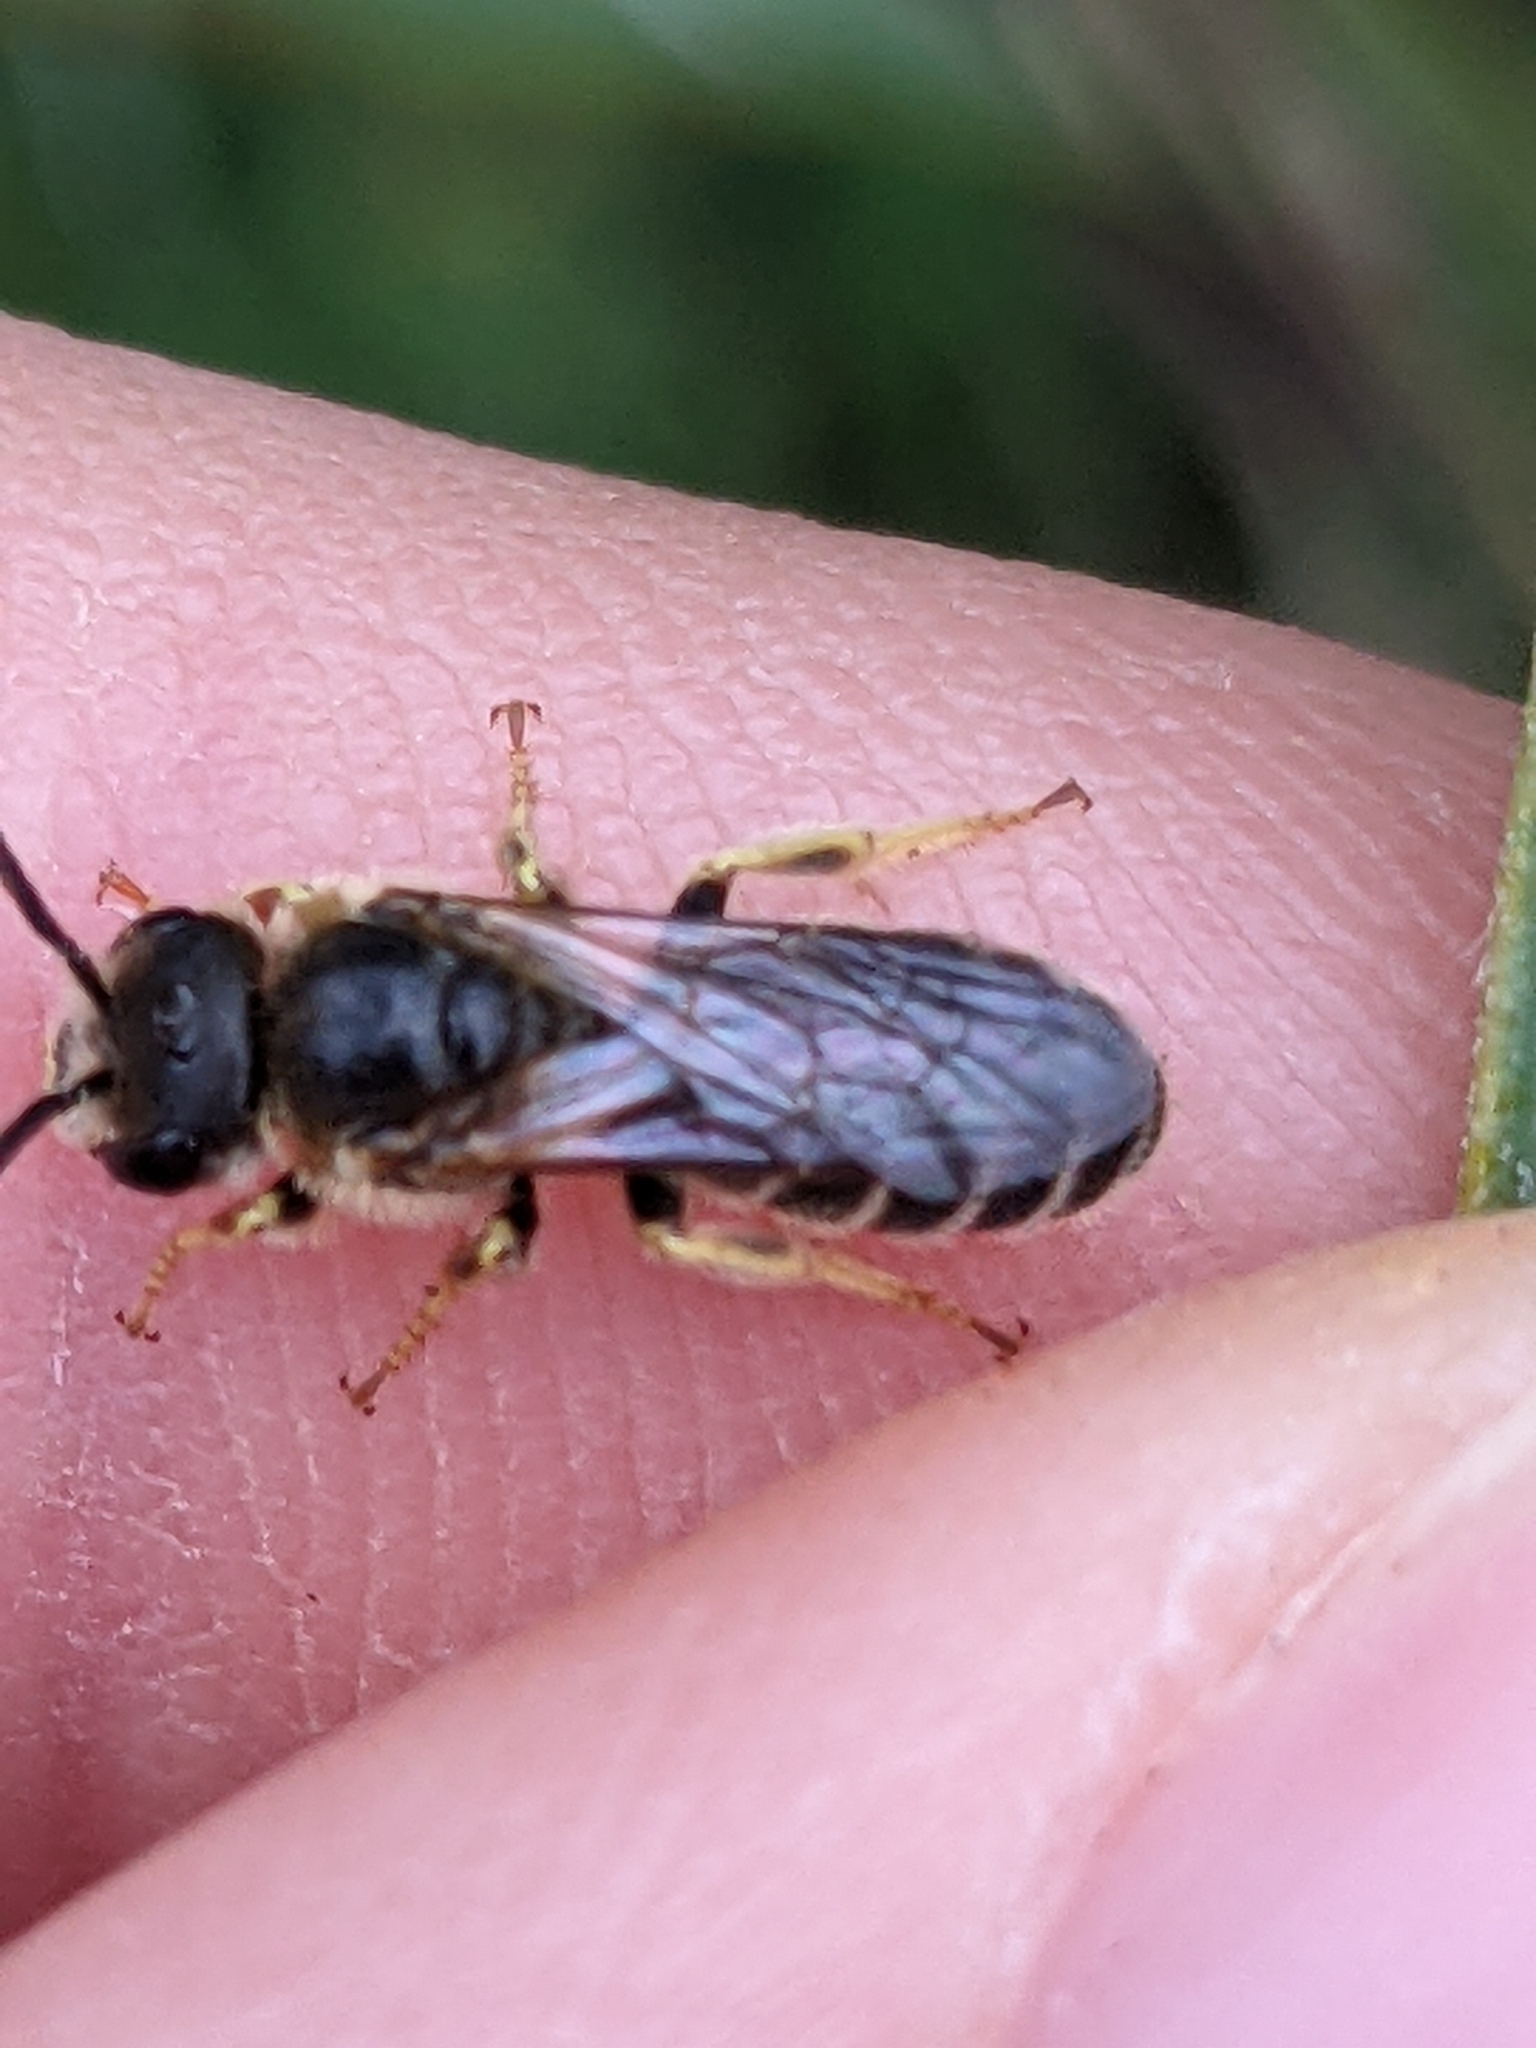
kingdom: Animalia
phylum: Arthropoda
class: Insecta
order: Hymenoptera
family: Halictidae
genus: Halictus
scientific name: Halictus ligatus
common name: Ligated furrow bee
